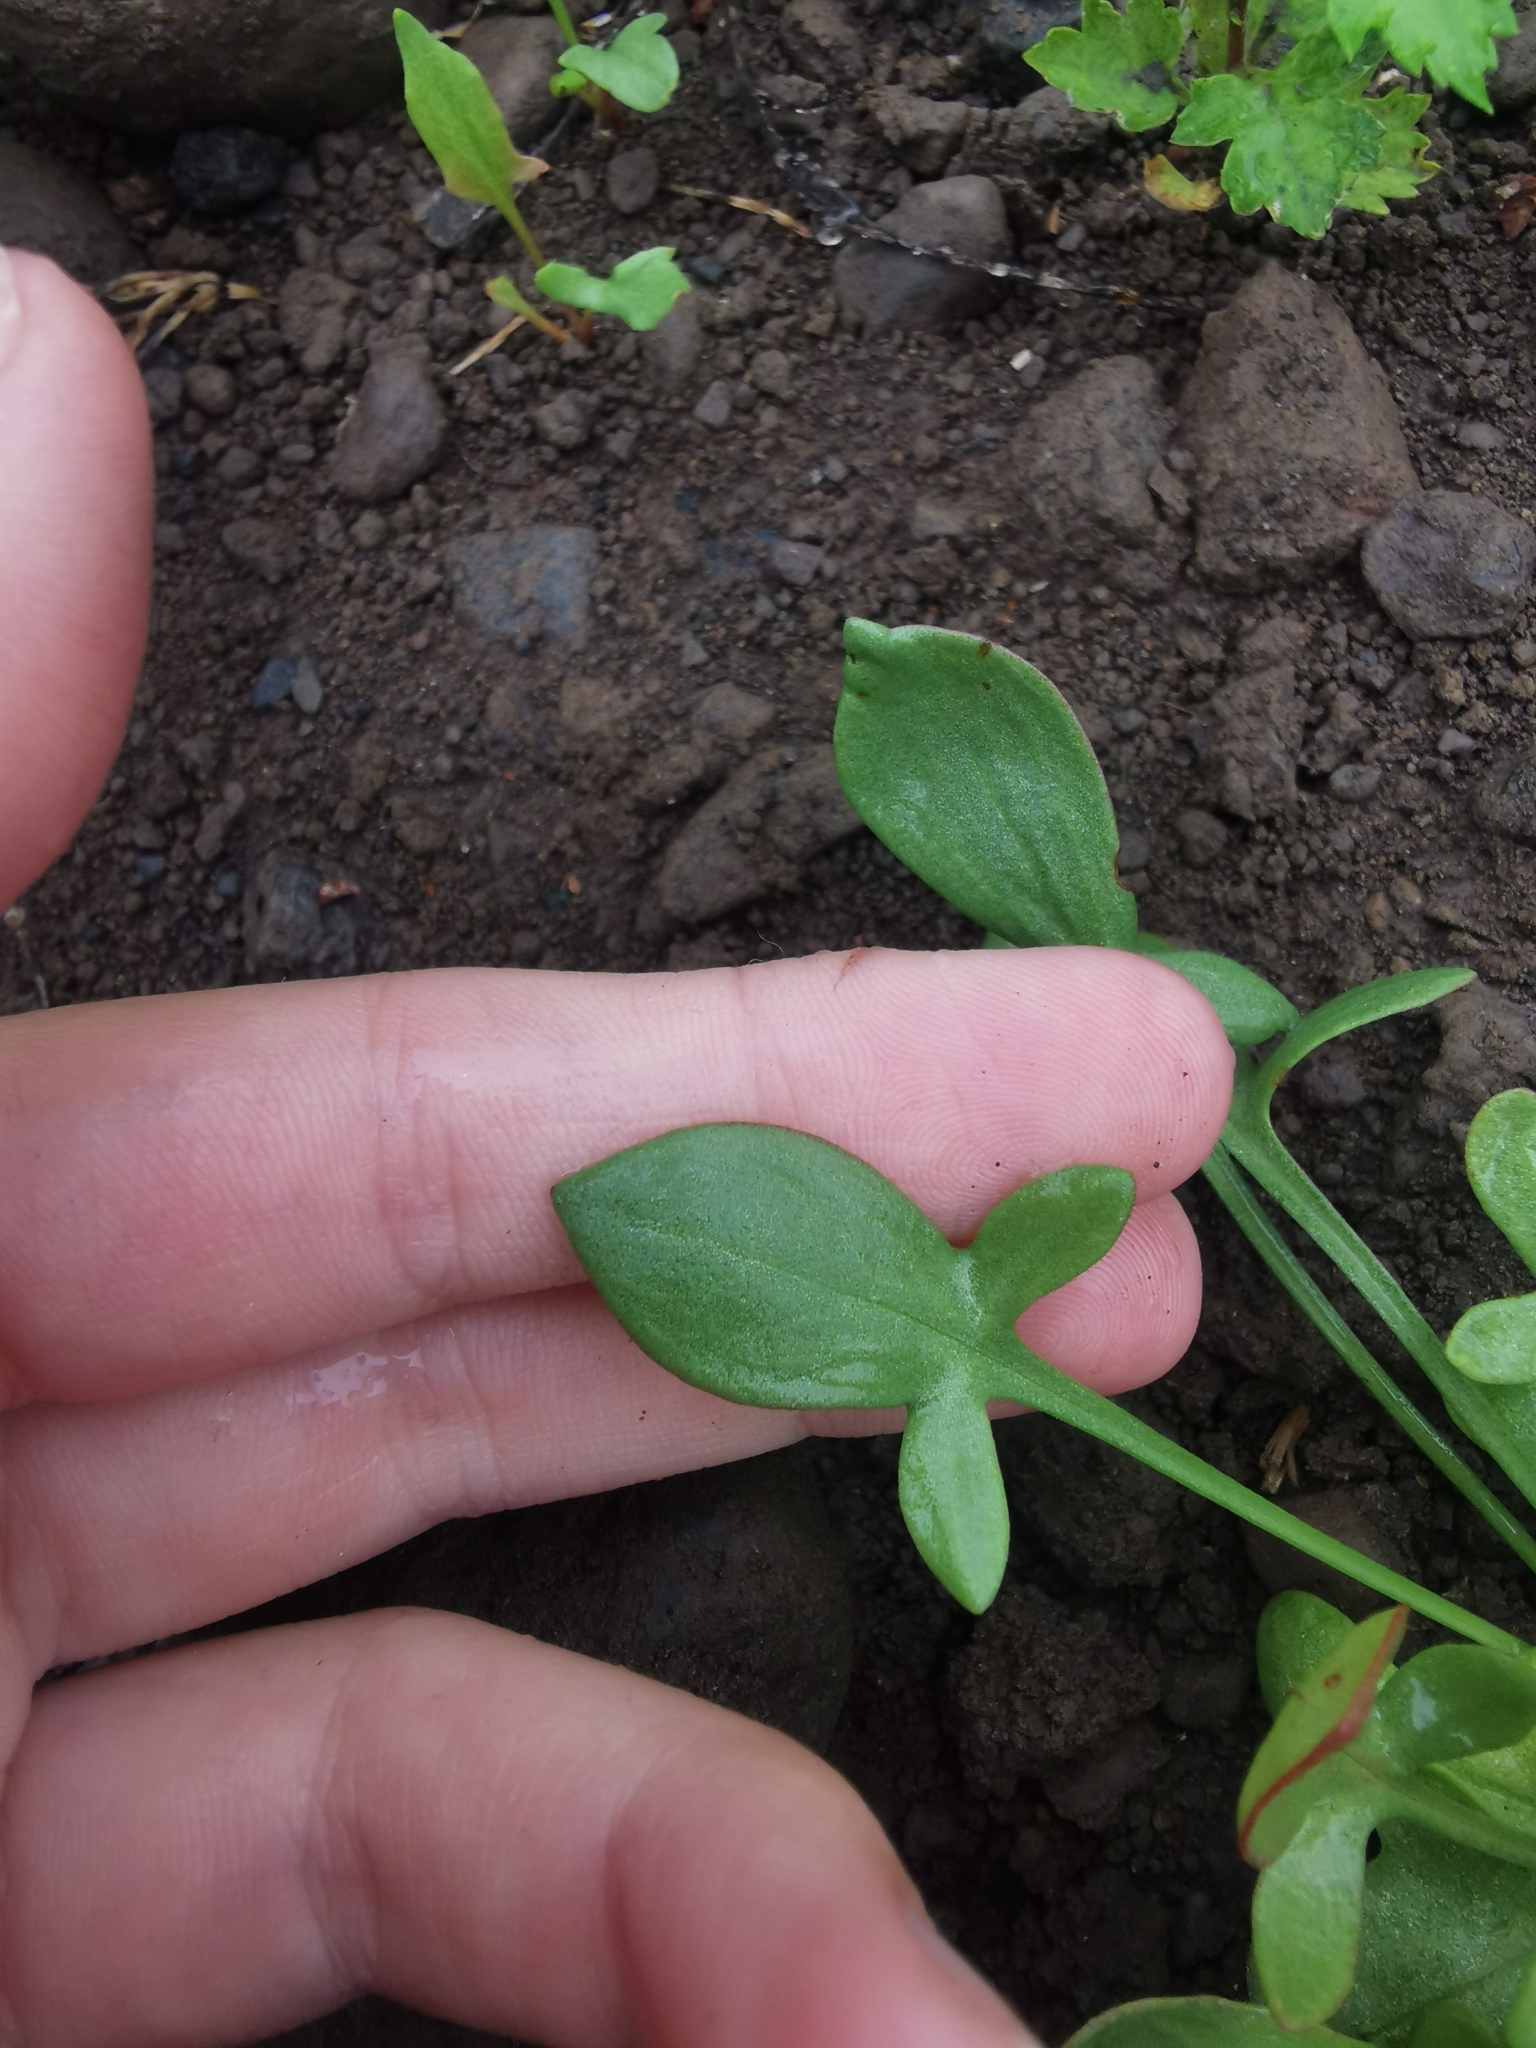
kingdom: Plantae
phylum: Tracheophyta
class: Magnoliopsida
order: Caryophyllales
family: Polygonaceae
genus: Rumex
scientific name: Rumex acetosella
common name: Common sheep sorrel
